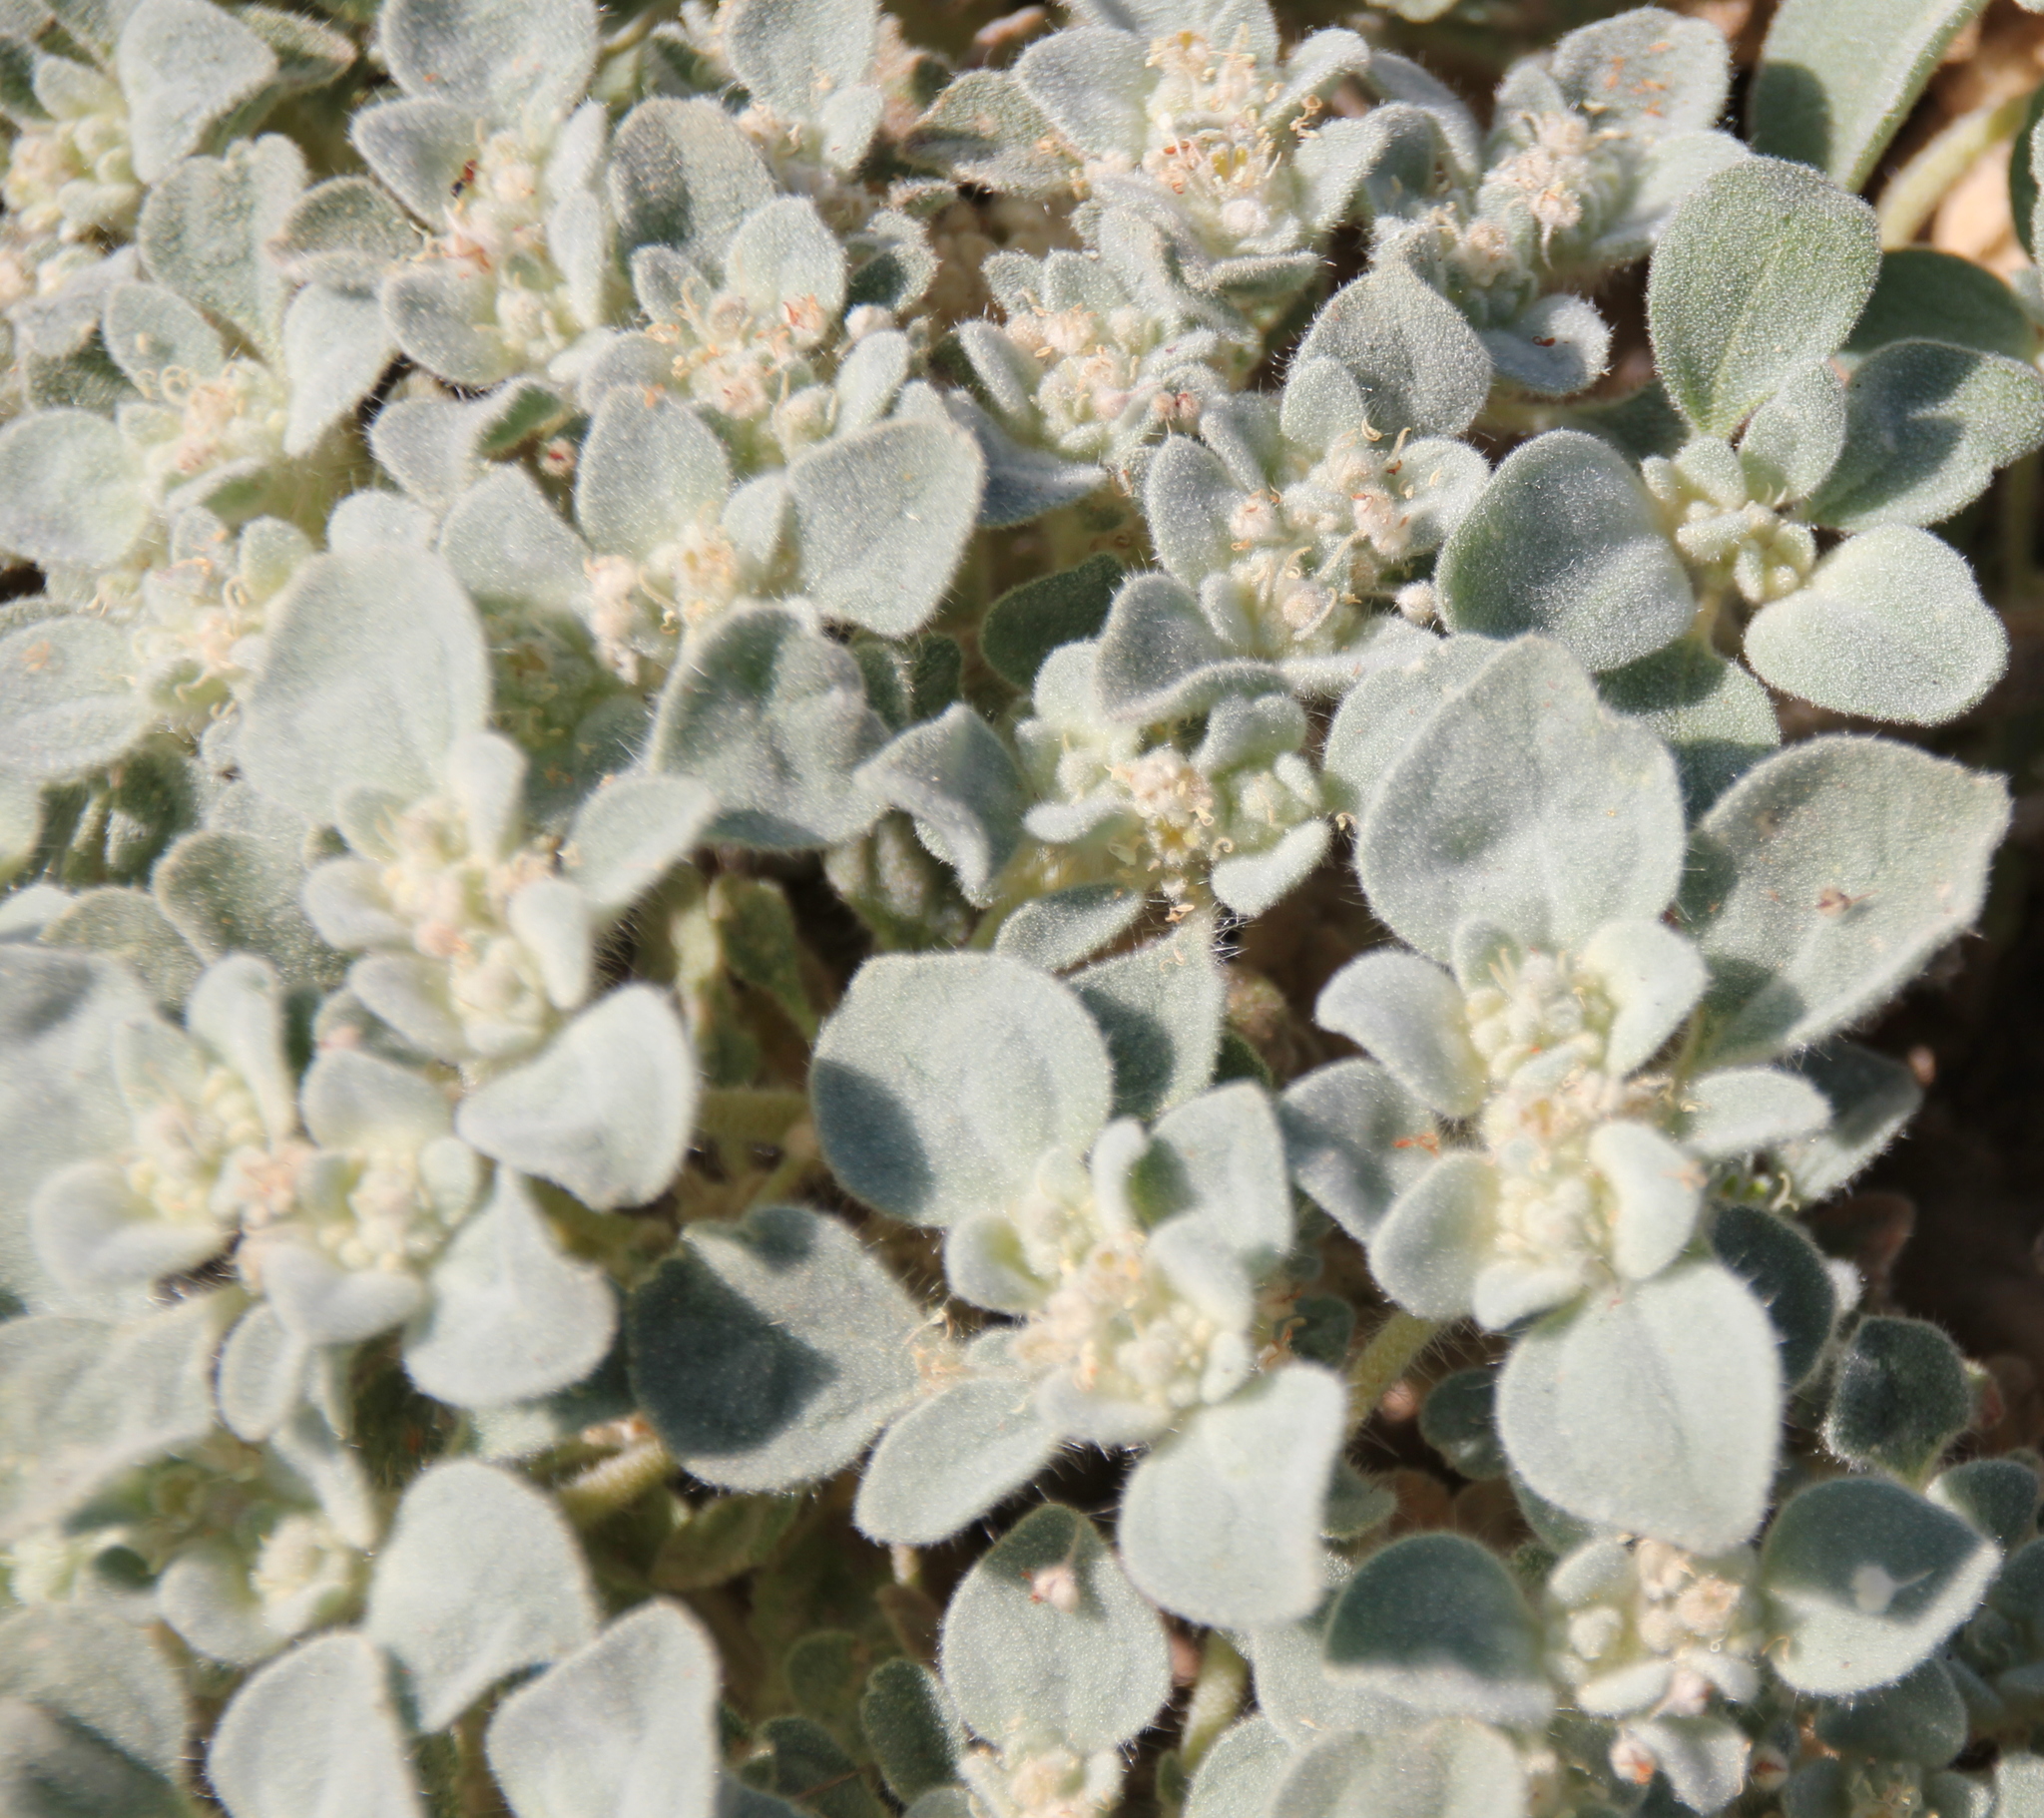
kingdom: Plantae
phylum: Tracheophyta
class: Magnoliopsida
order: Malpighiales
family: Euphorbiaceae
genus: Croton
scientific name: Croton setiger
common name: Dove weed
